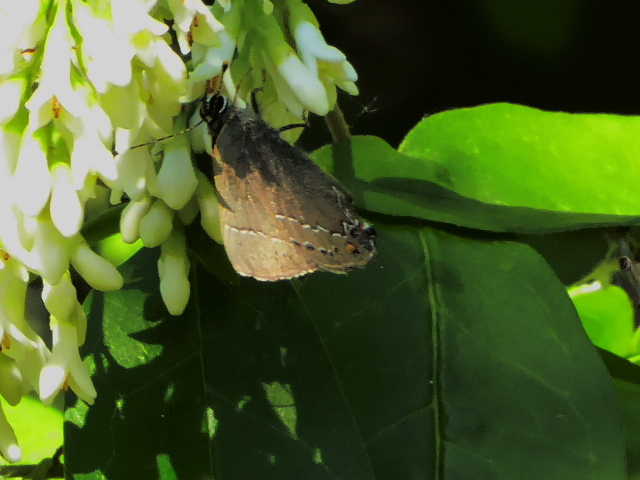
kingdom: Animalia
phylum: Arthropoda
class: Insecta
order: Lepidoptera
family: Lycaenidae
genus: Fixsenia
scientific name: Fixsenia favonius
